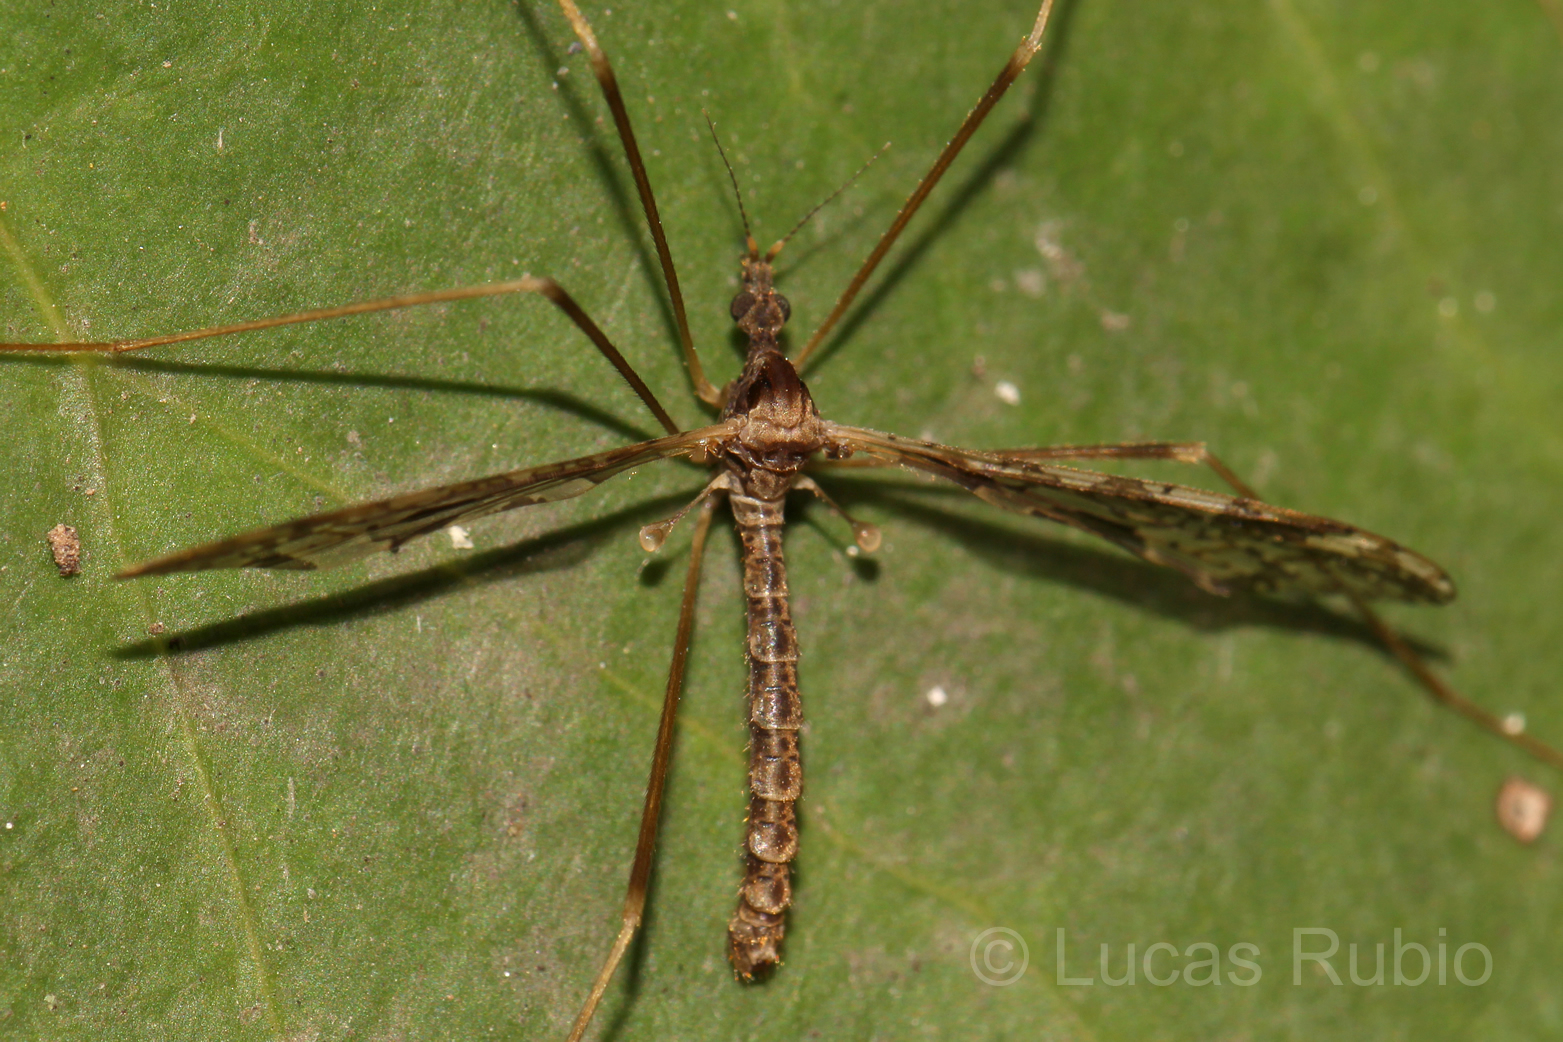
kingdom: Animalia
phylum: Arthropoda
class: Insecta
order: Diptera
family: Limoniidae
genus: Epiphragma
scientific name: Epiphragma imitans
